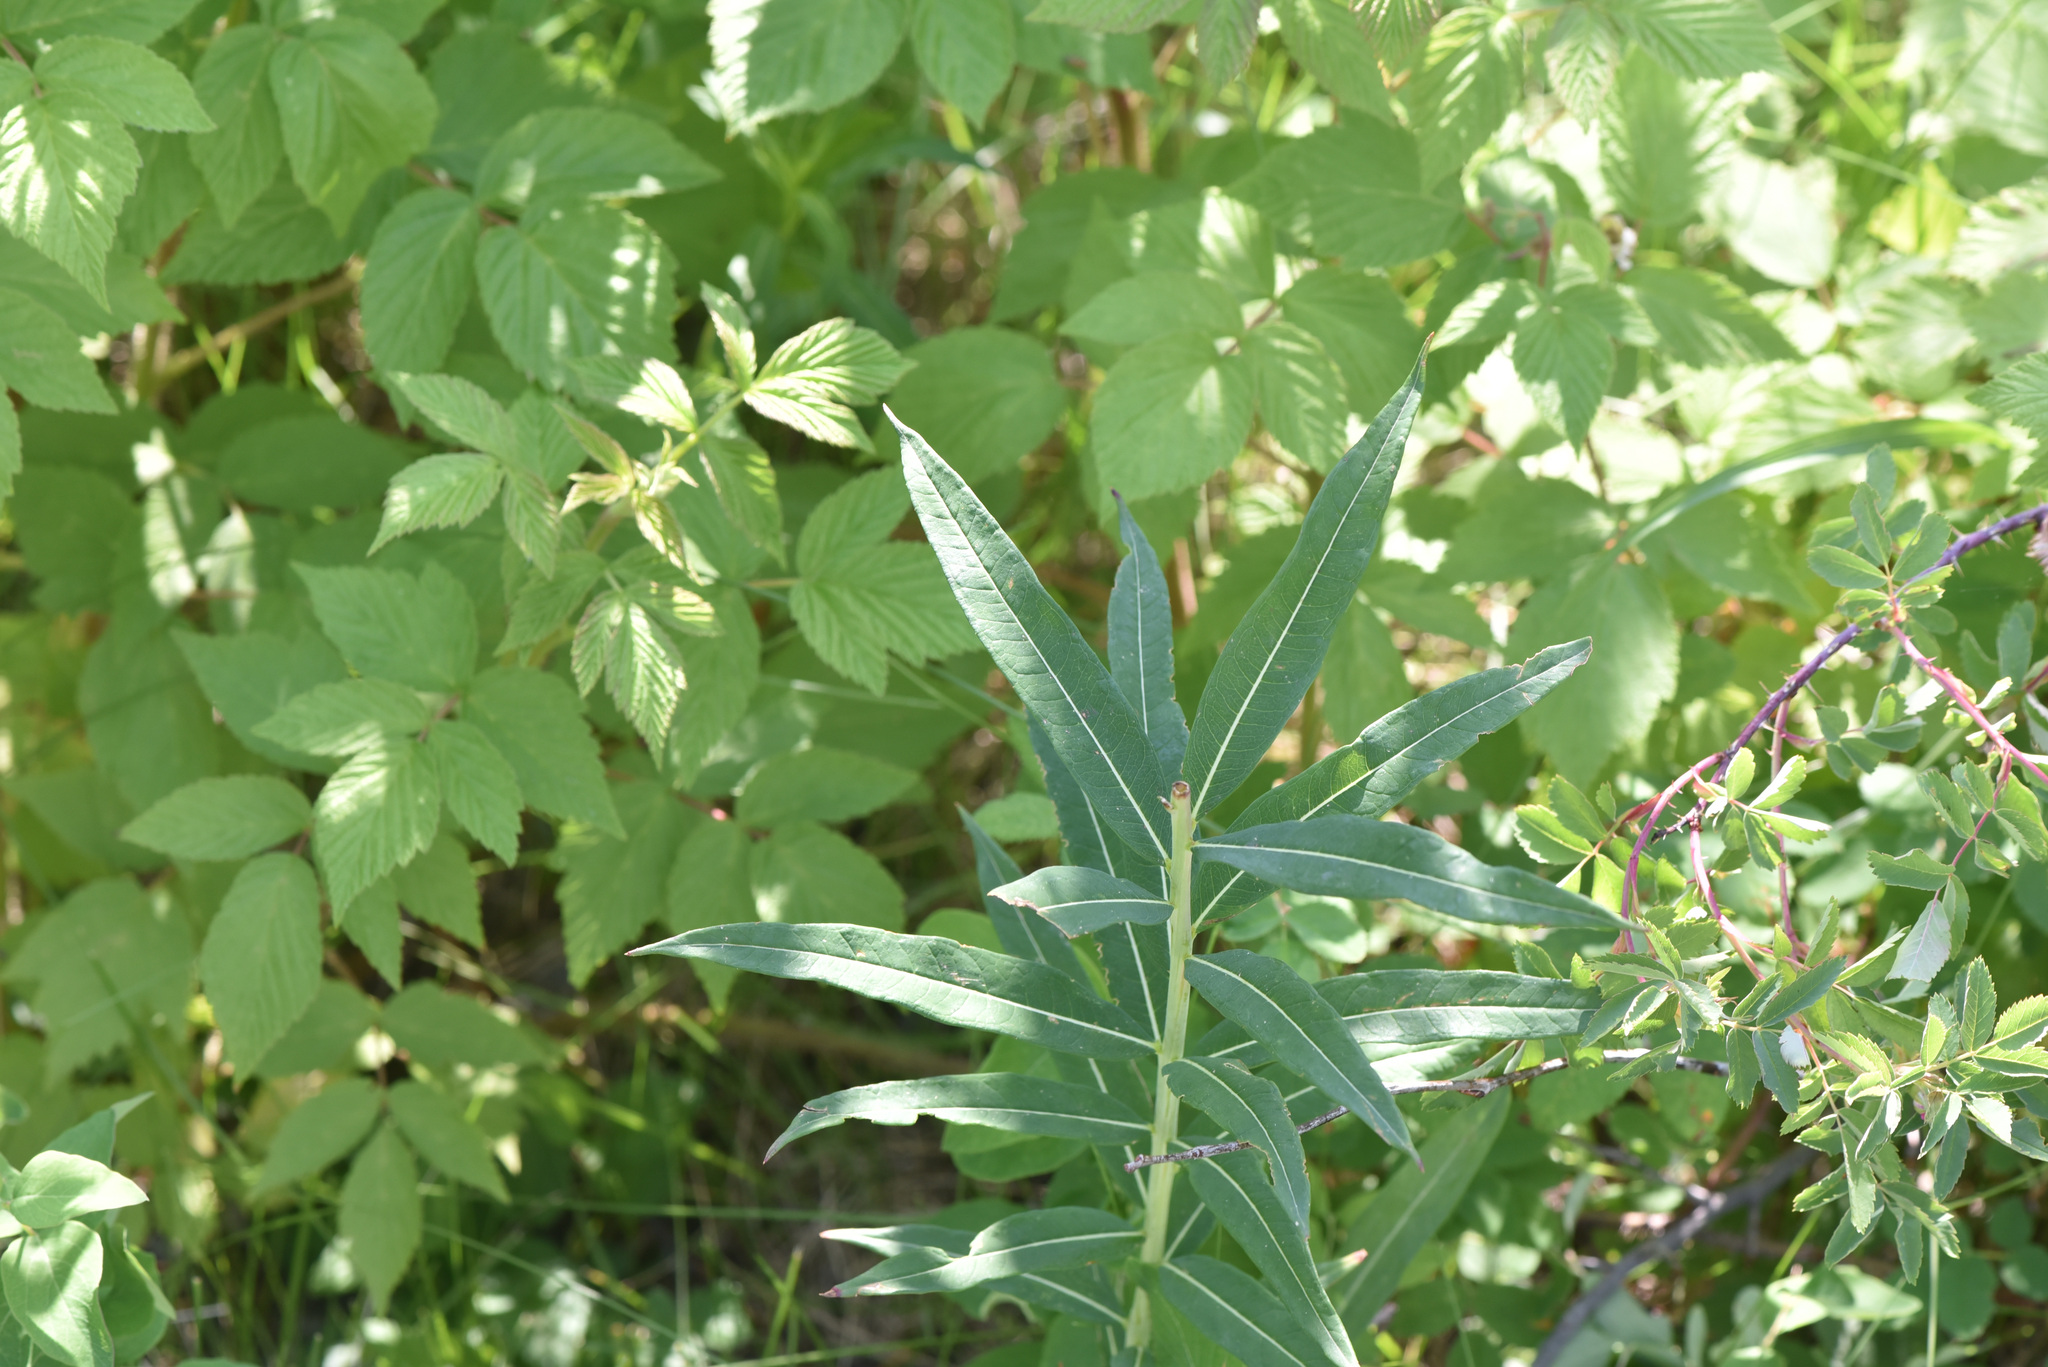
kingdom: Plantae
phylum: Tracheophyta
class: Magnoliopsida
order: Myrtales
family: Onagraceae
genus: Chamaenerion
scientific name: Chamaenerion angustifolium
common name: Fireweed
